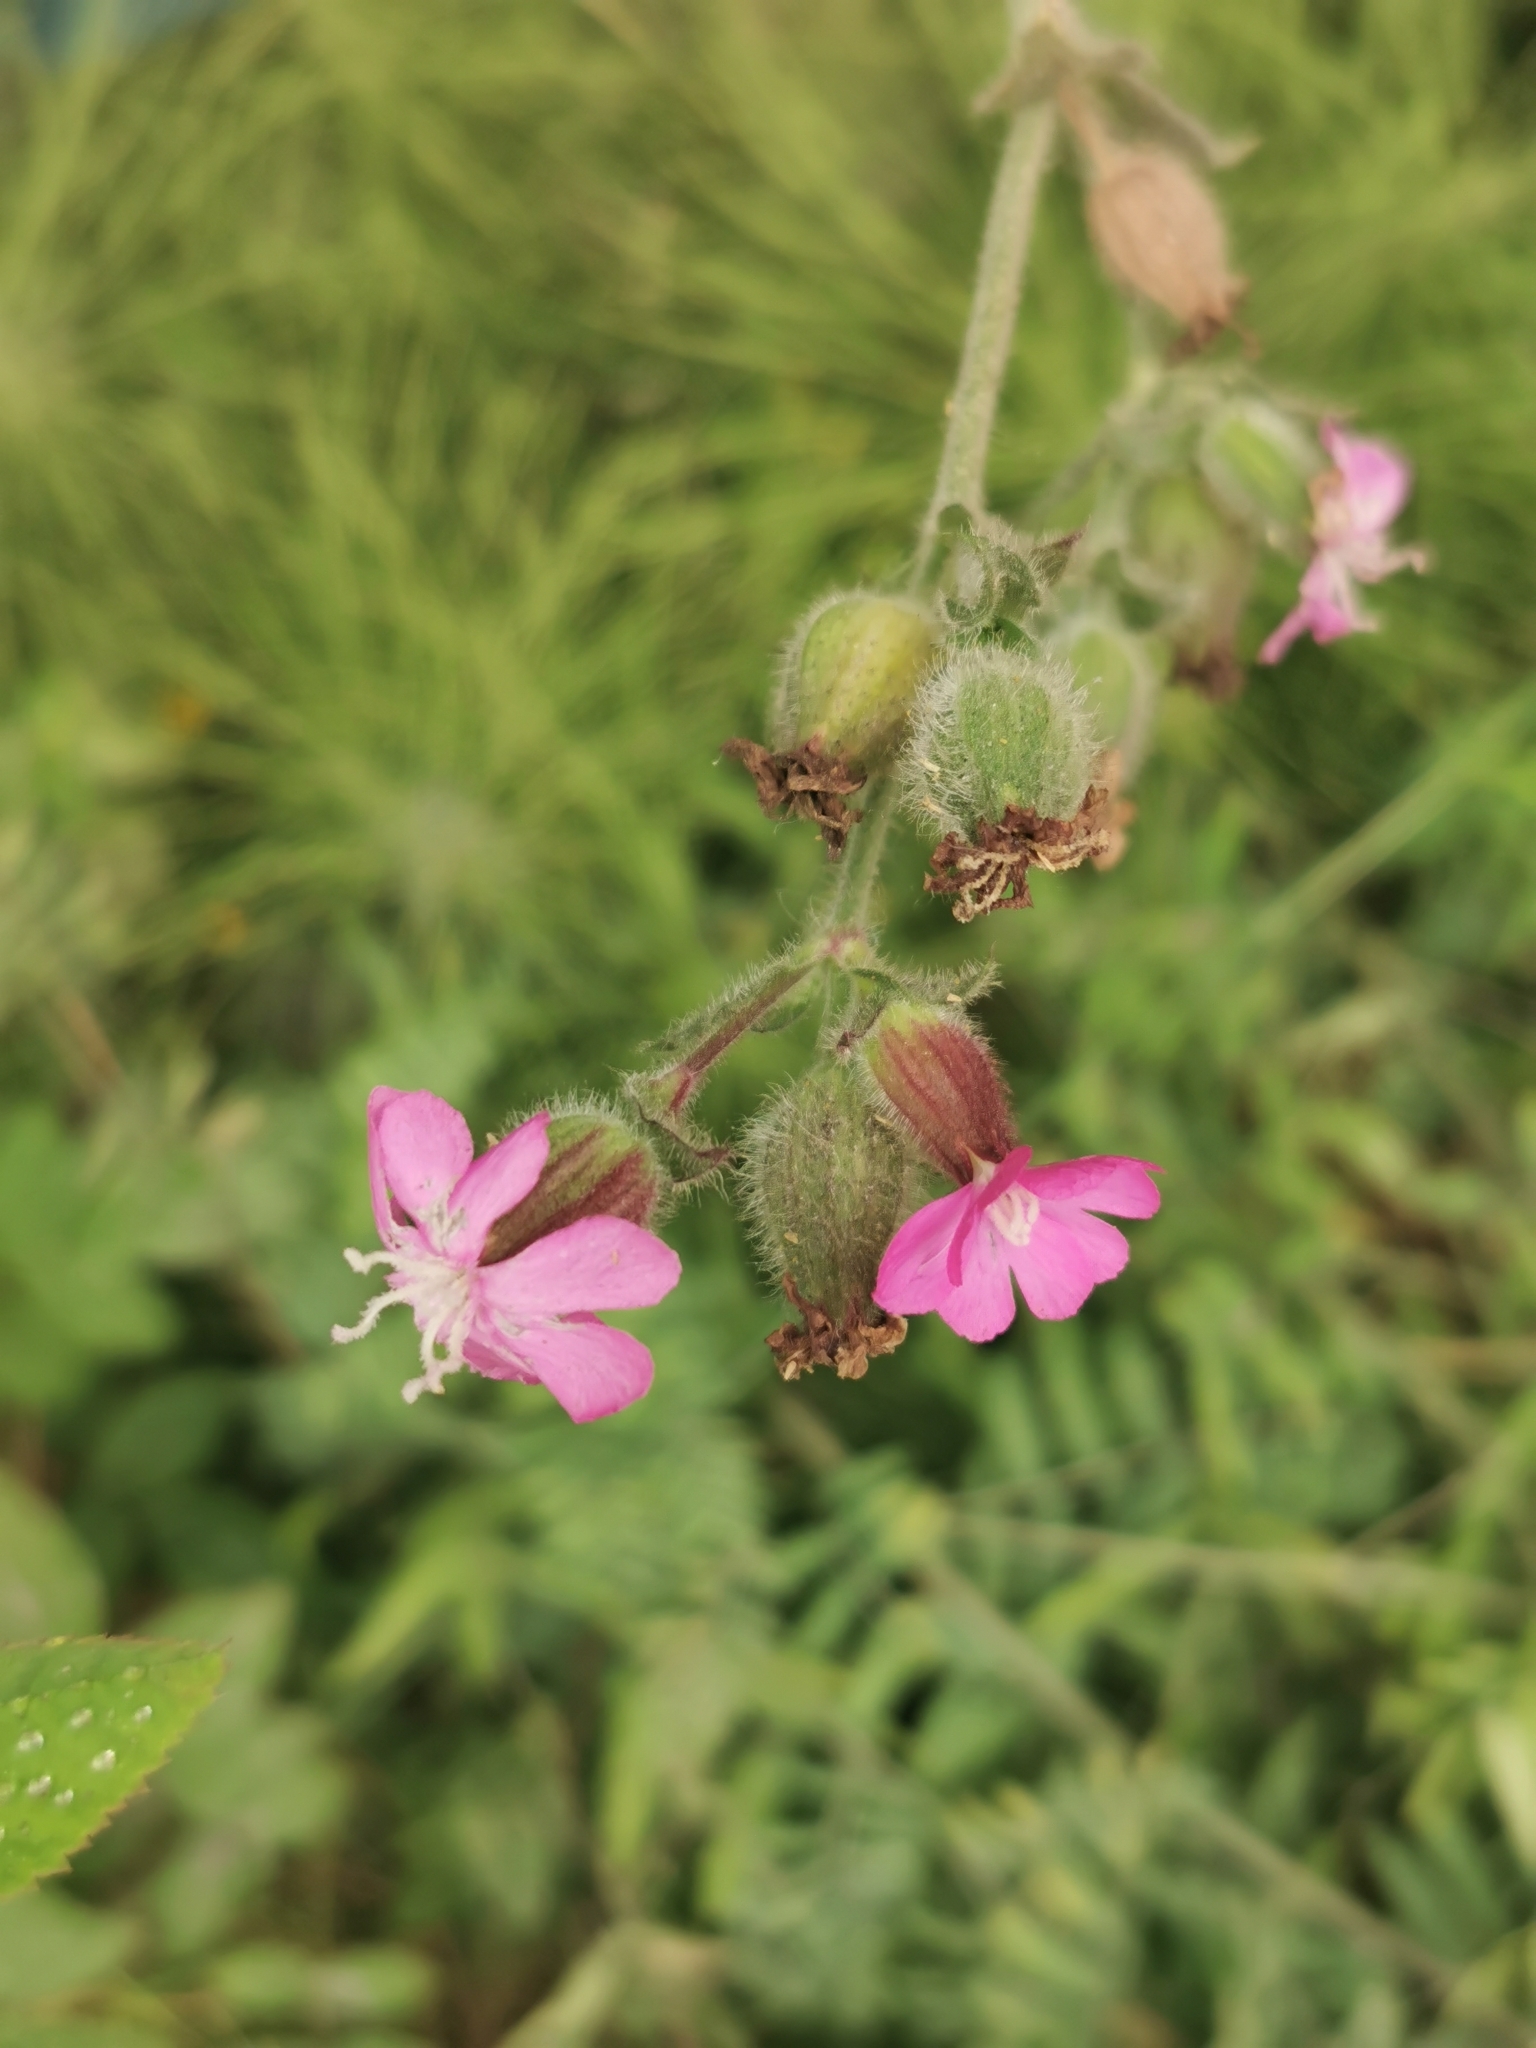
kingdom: Plantae
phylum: Tracheophyta
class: Magnoliopsida
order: Caryophyllales
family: Caryophyllaceae
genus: Silene
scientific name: Silene dioica
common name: Red campion
